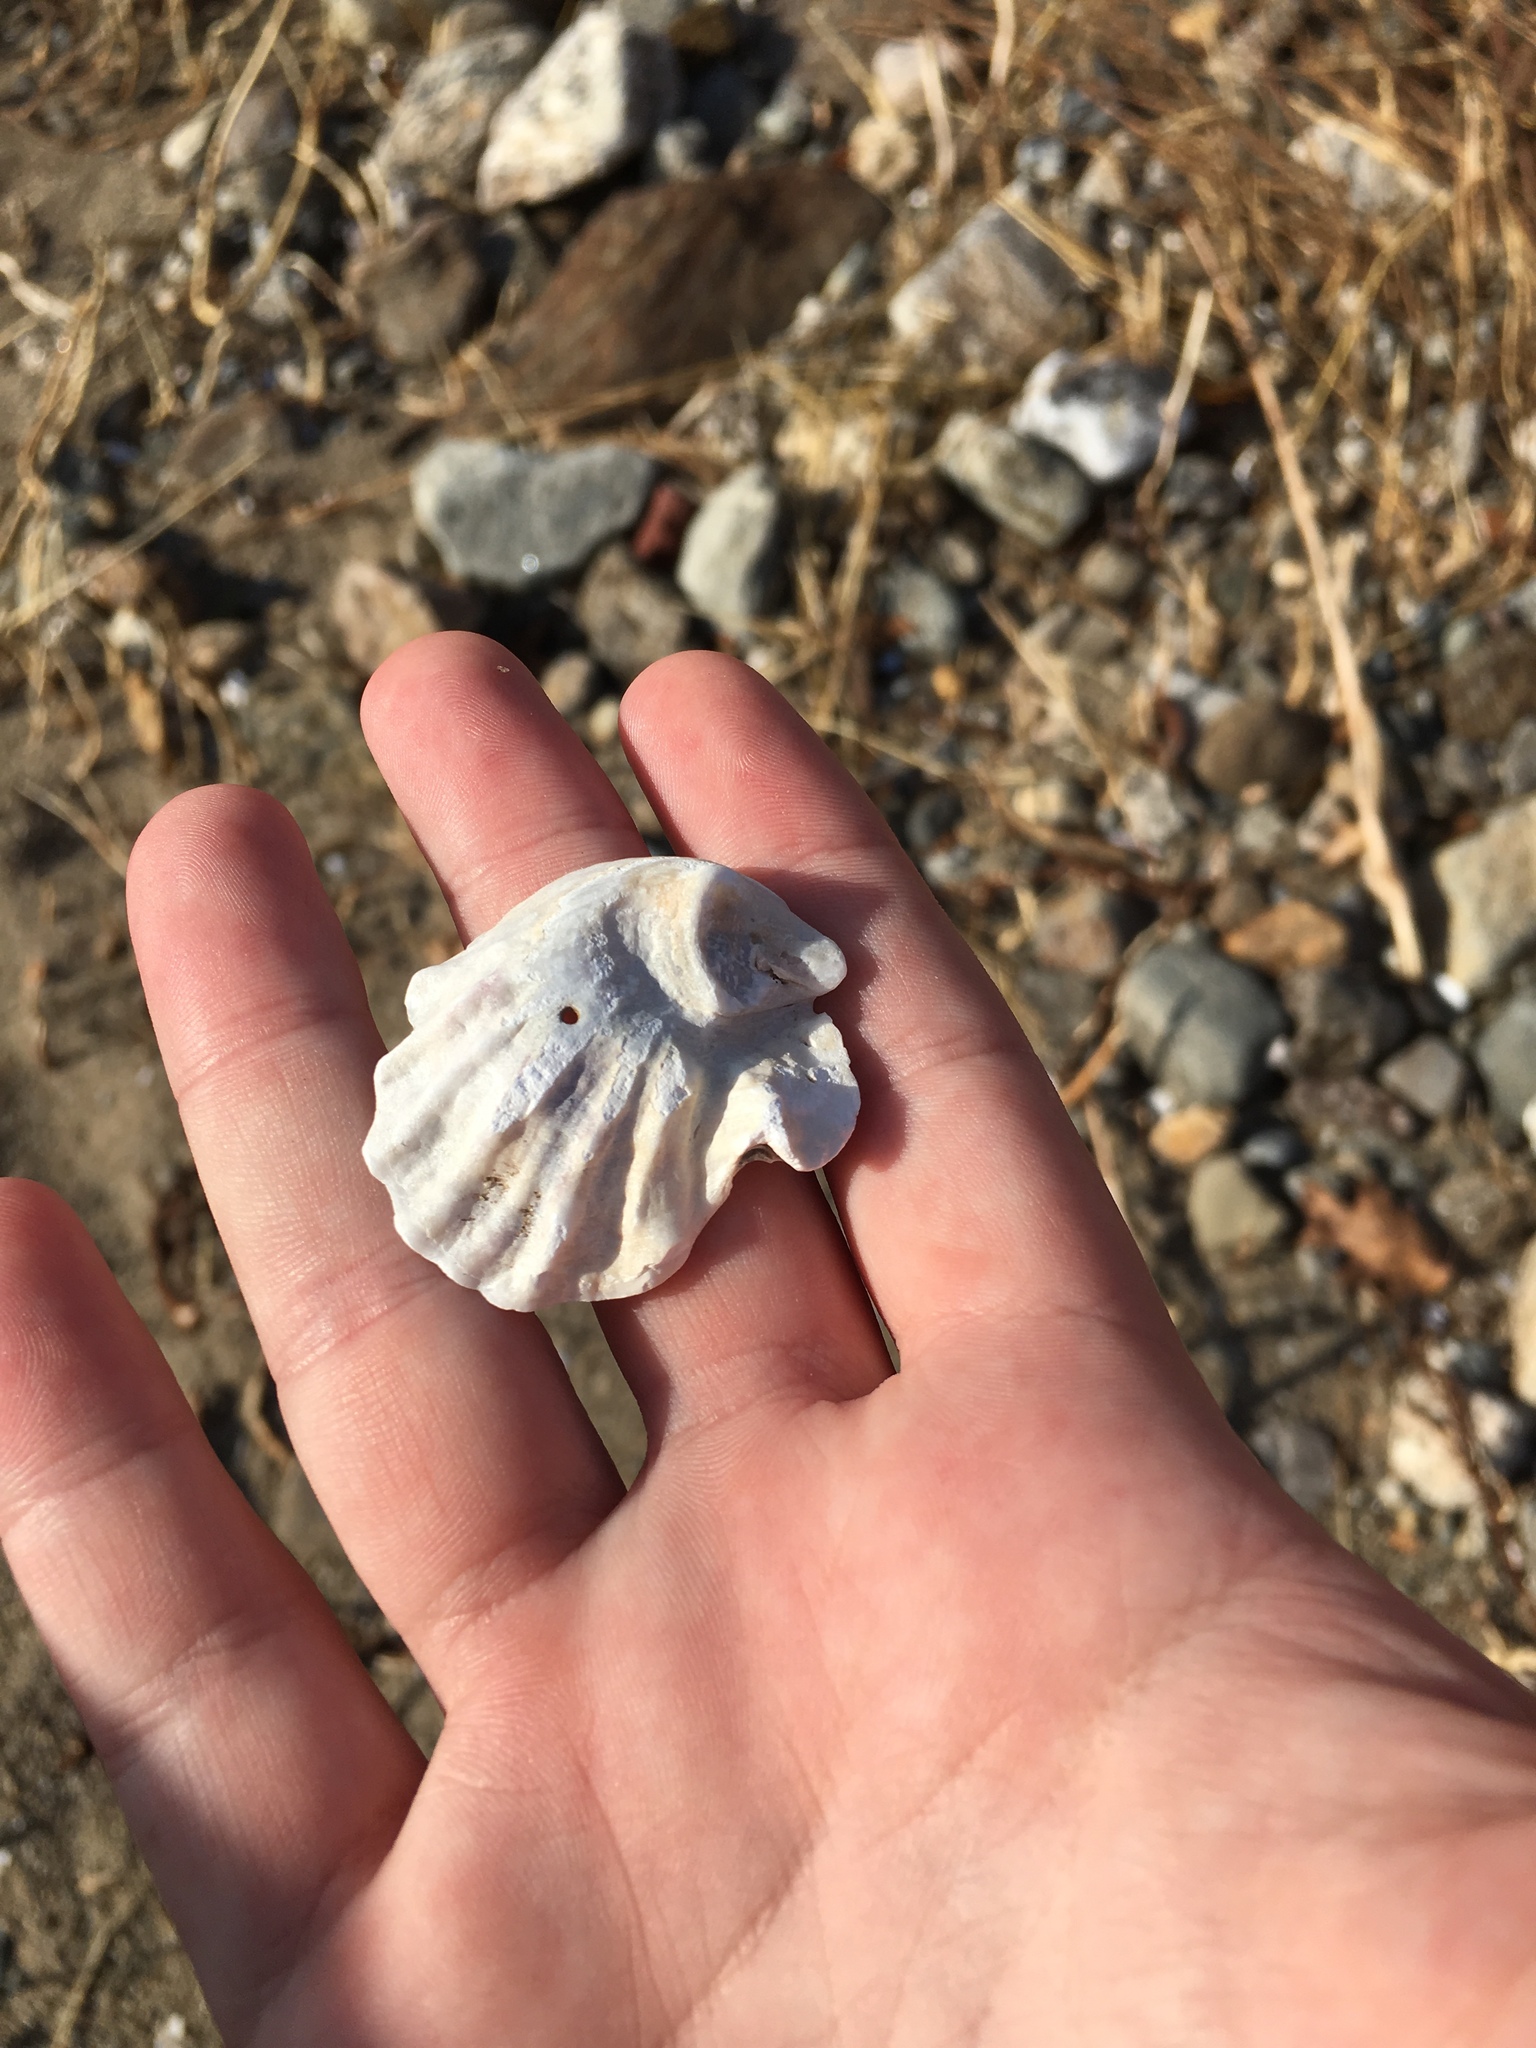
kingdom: Animalia
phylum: Mollusca
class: Bivalvia
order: Ostreida
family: Ostreidae
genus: Crassostrea
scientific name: Crassostrea virginica
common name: American oyster
